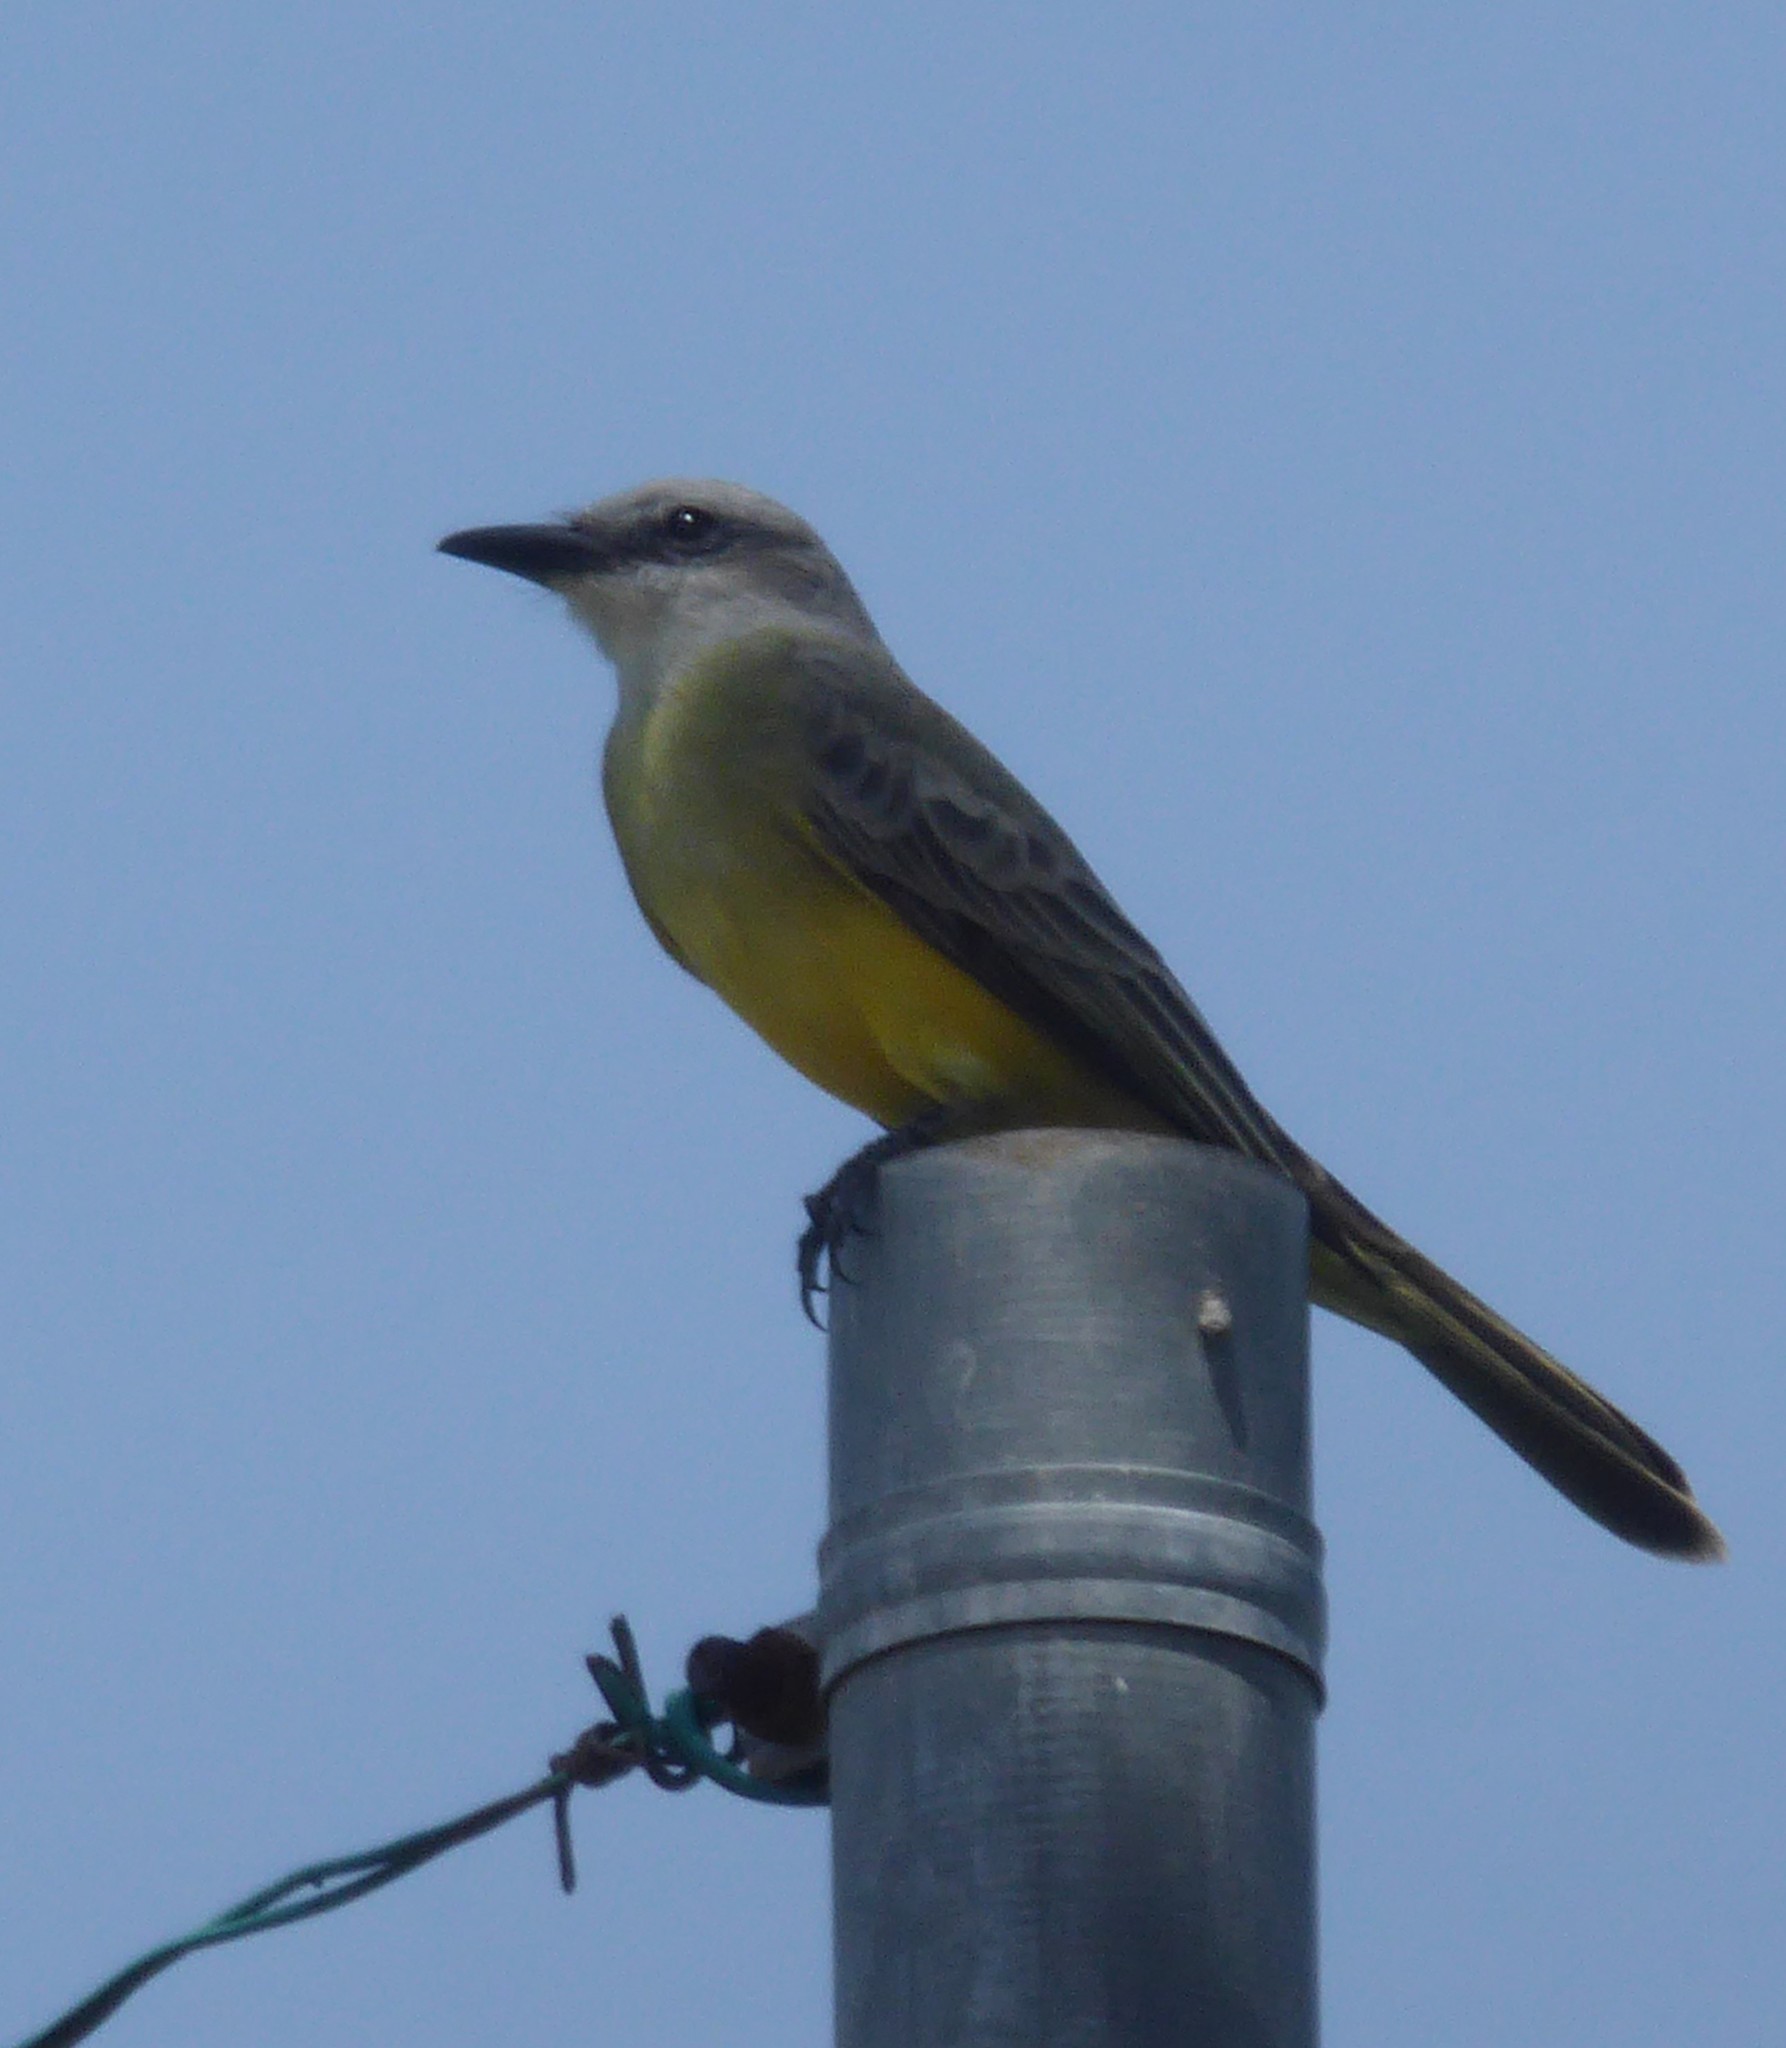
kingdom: Animalia
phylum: Chordata
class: Aves
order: Passeriformes
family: Tyrannidae
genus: Tyrannus
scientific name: Tyrannus melancholicus
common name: Tropical kingbird
